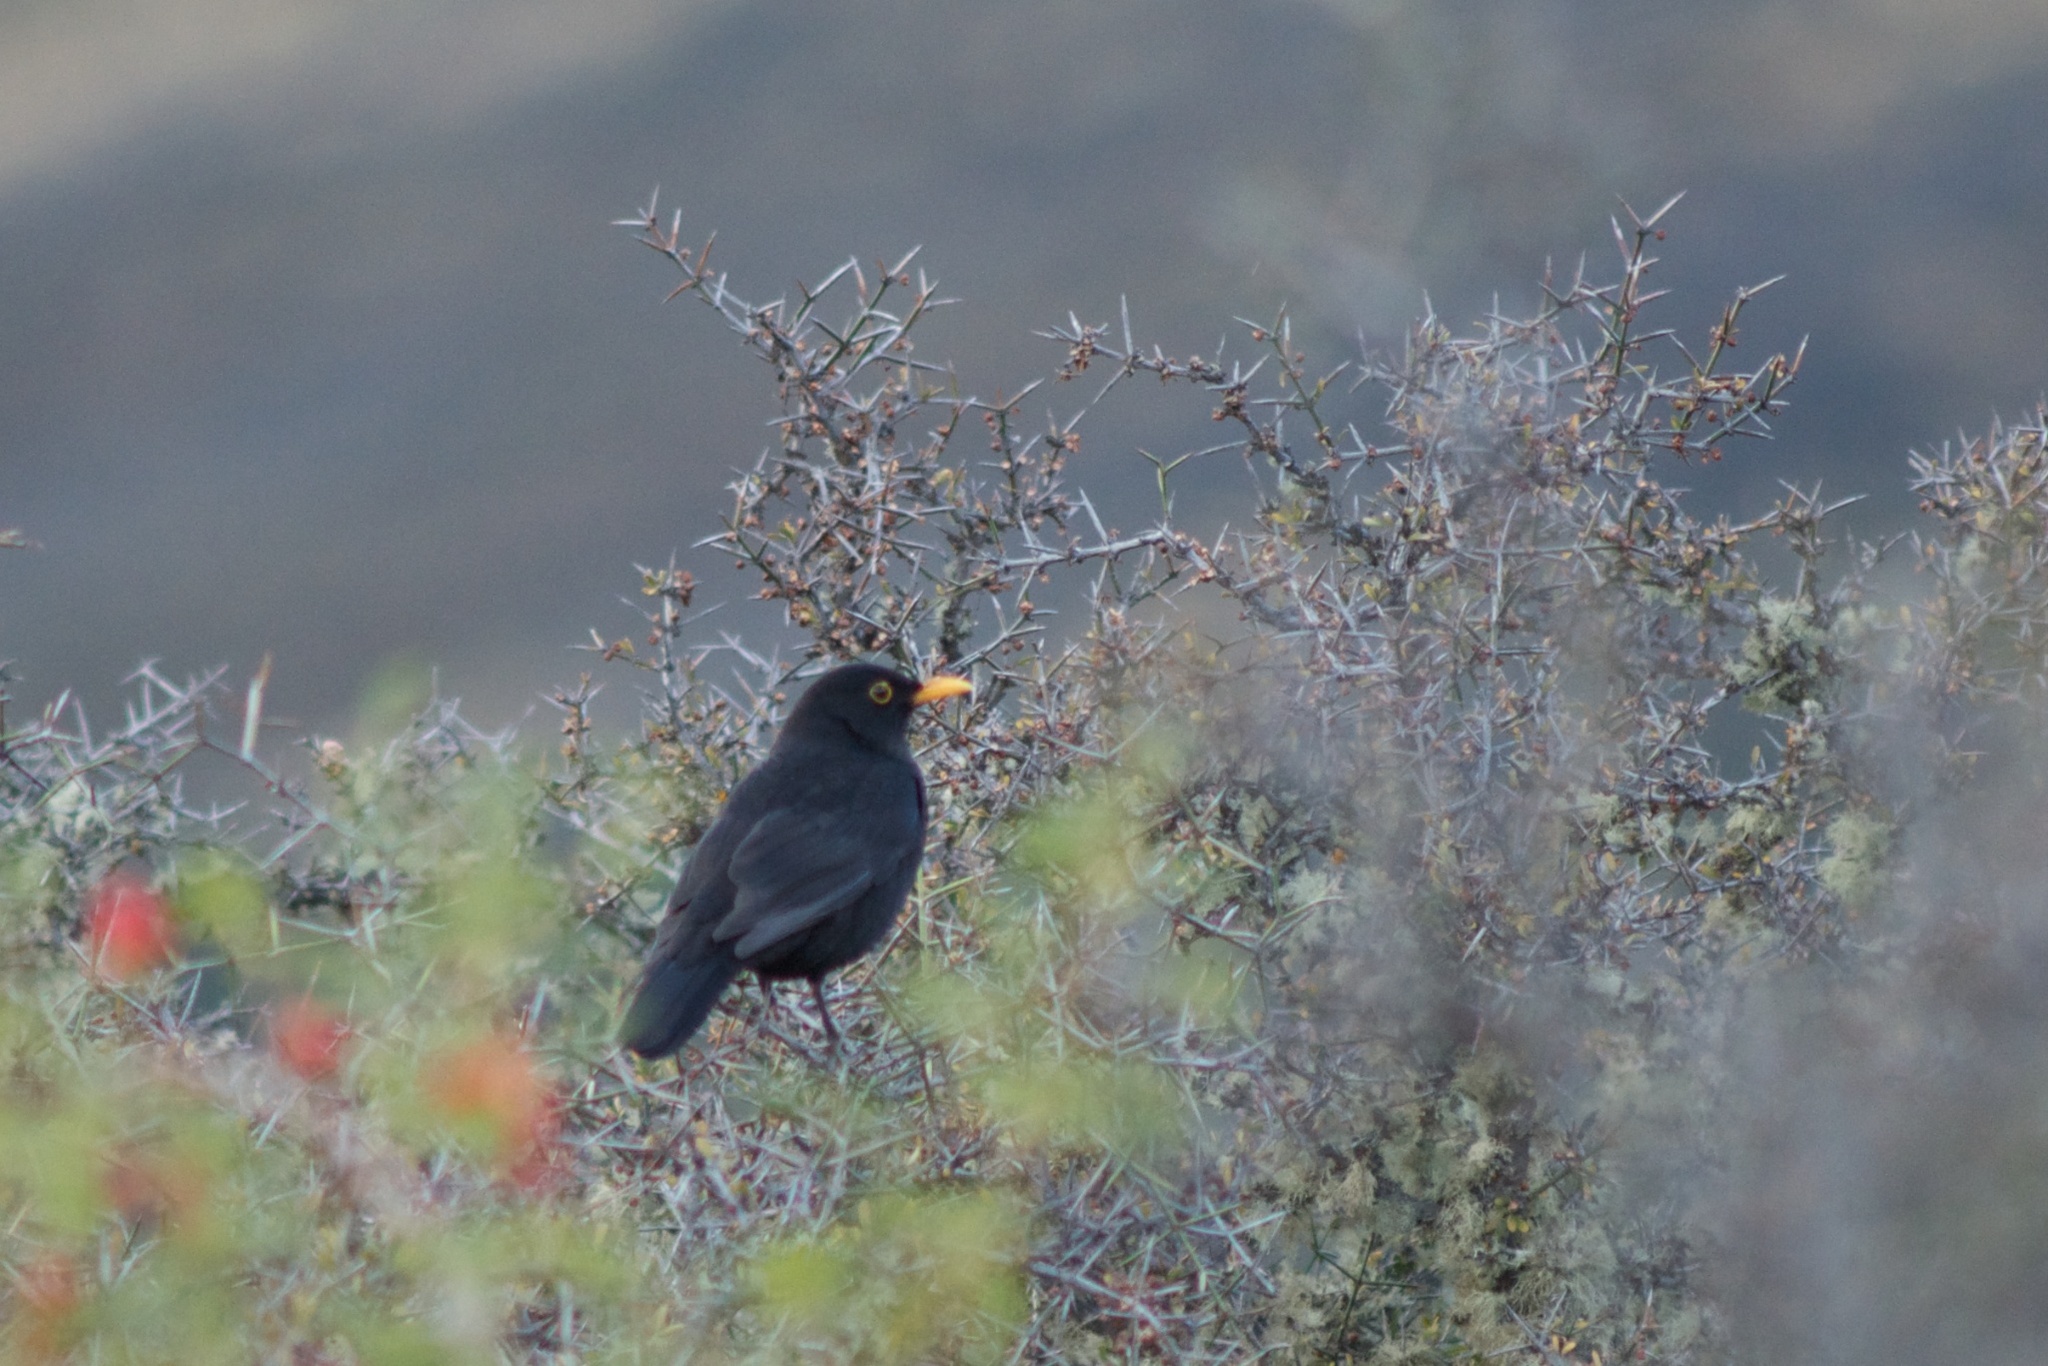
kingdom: Animalia
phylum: Chordata
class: Aves
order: Passeriformes
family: Turdidae
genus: Turdus
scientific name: Turdus merula
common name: Common blackbird
